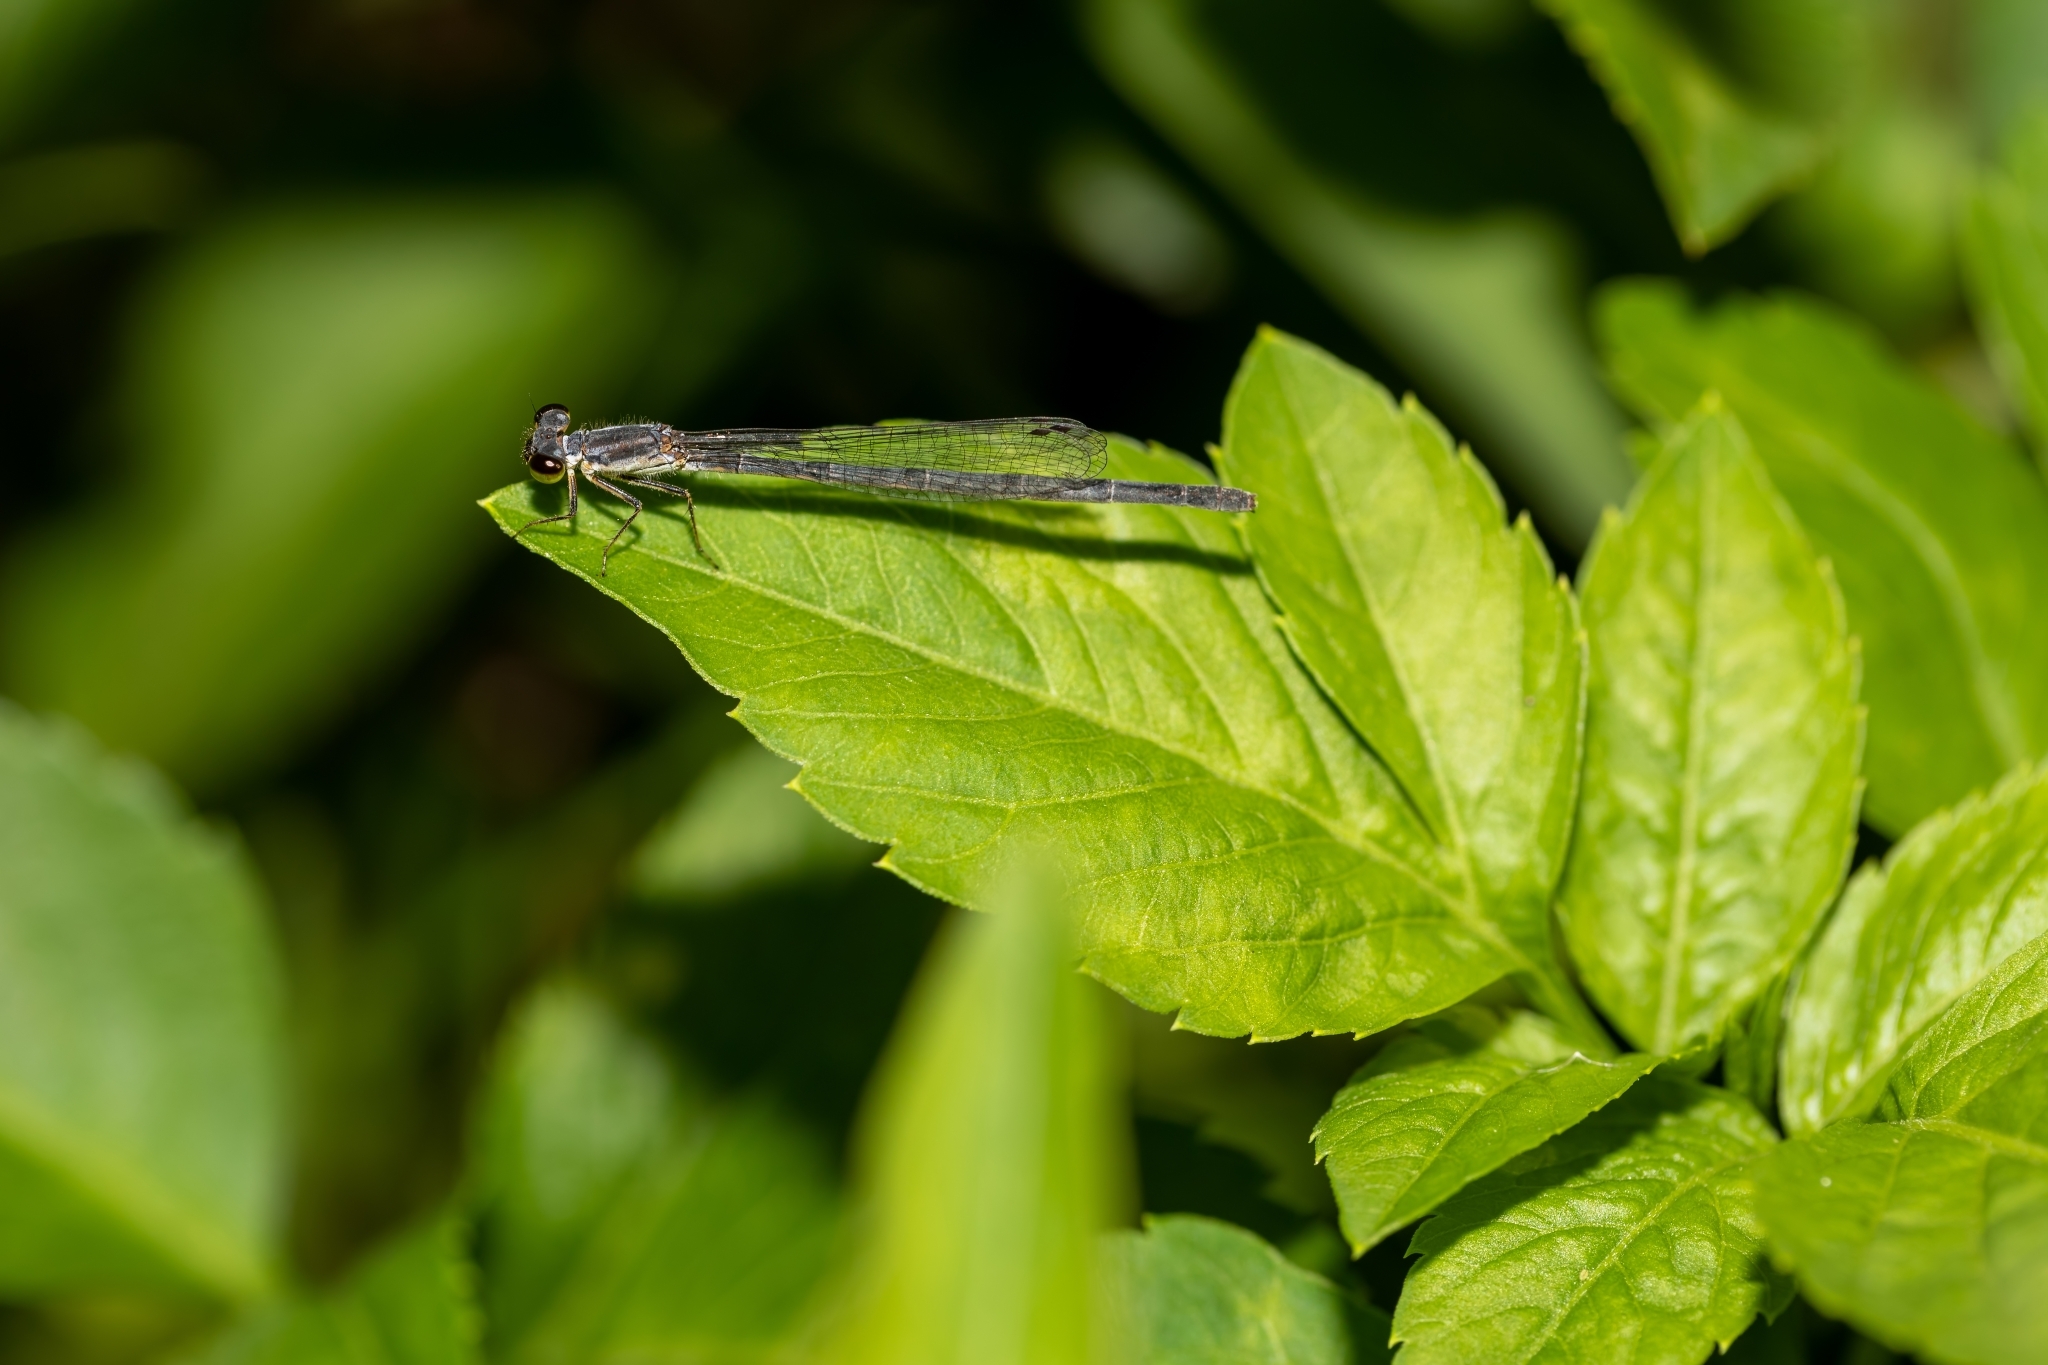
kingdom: Animalia
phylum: Arthropoda
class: Insecta
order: Odonata
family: Coenagrionidae
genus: Ischnura
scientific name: Ischnura posita
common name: Fragile forktail
